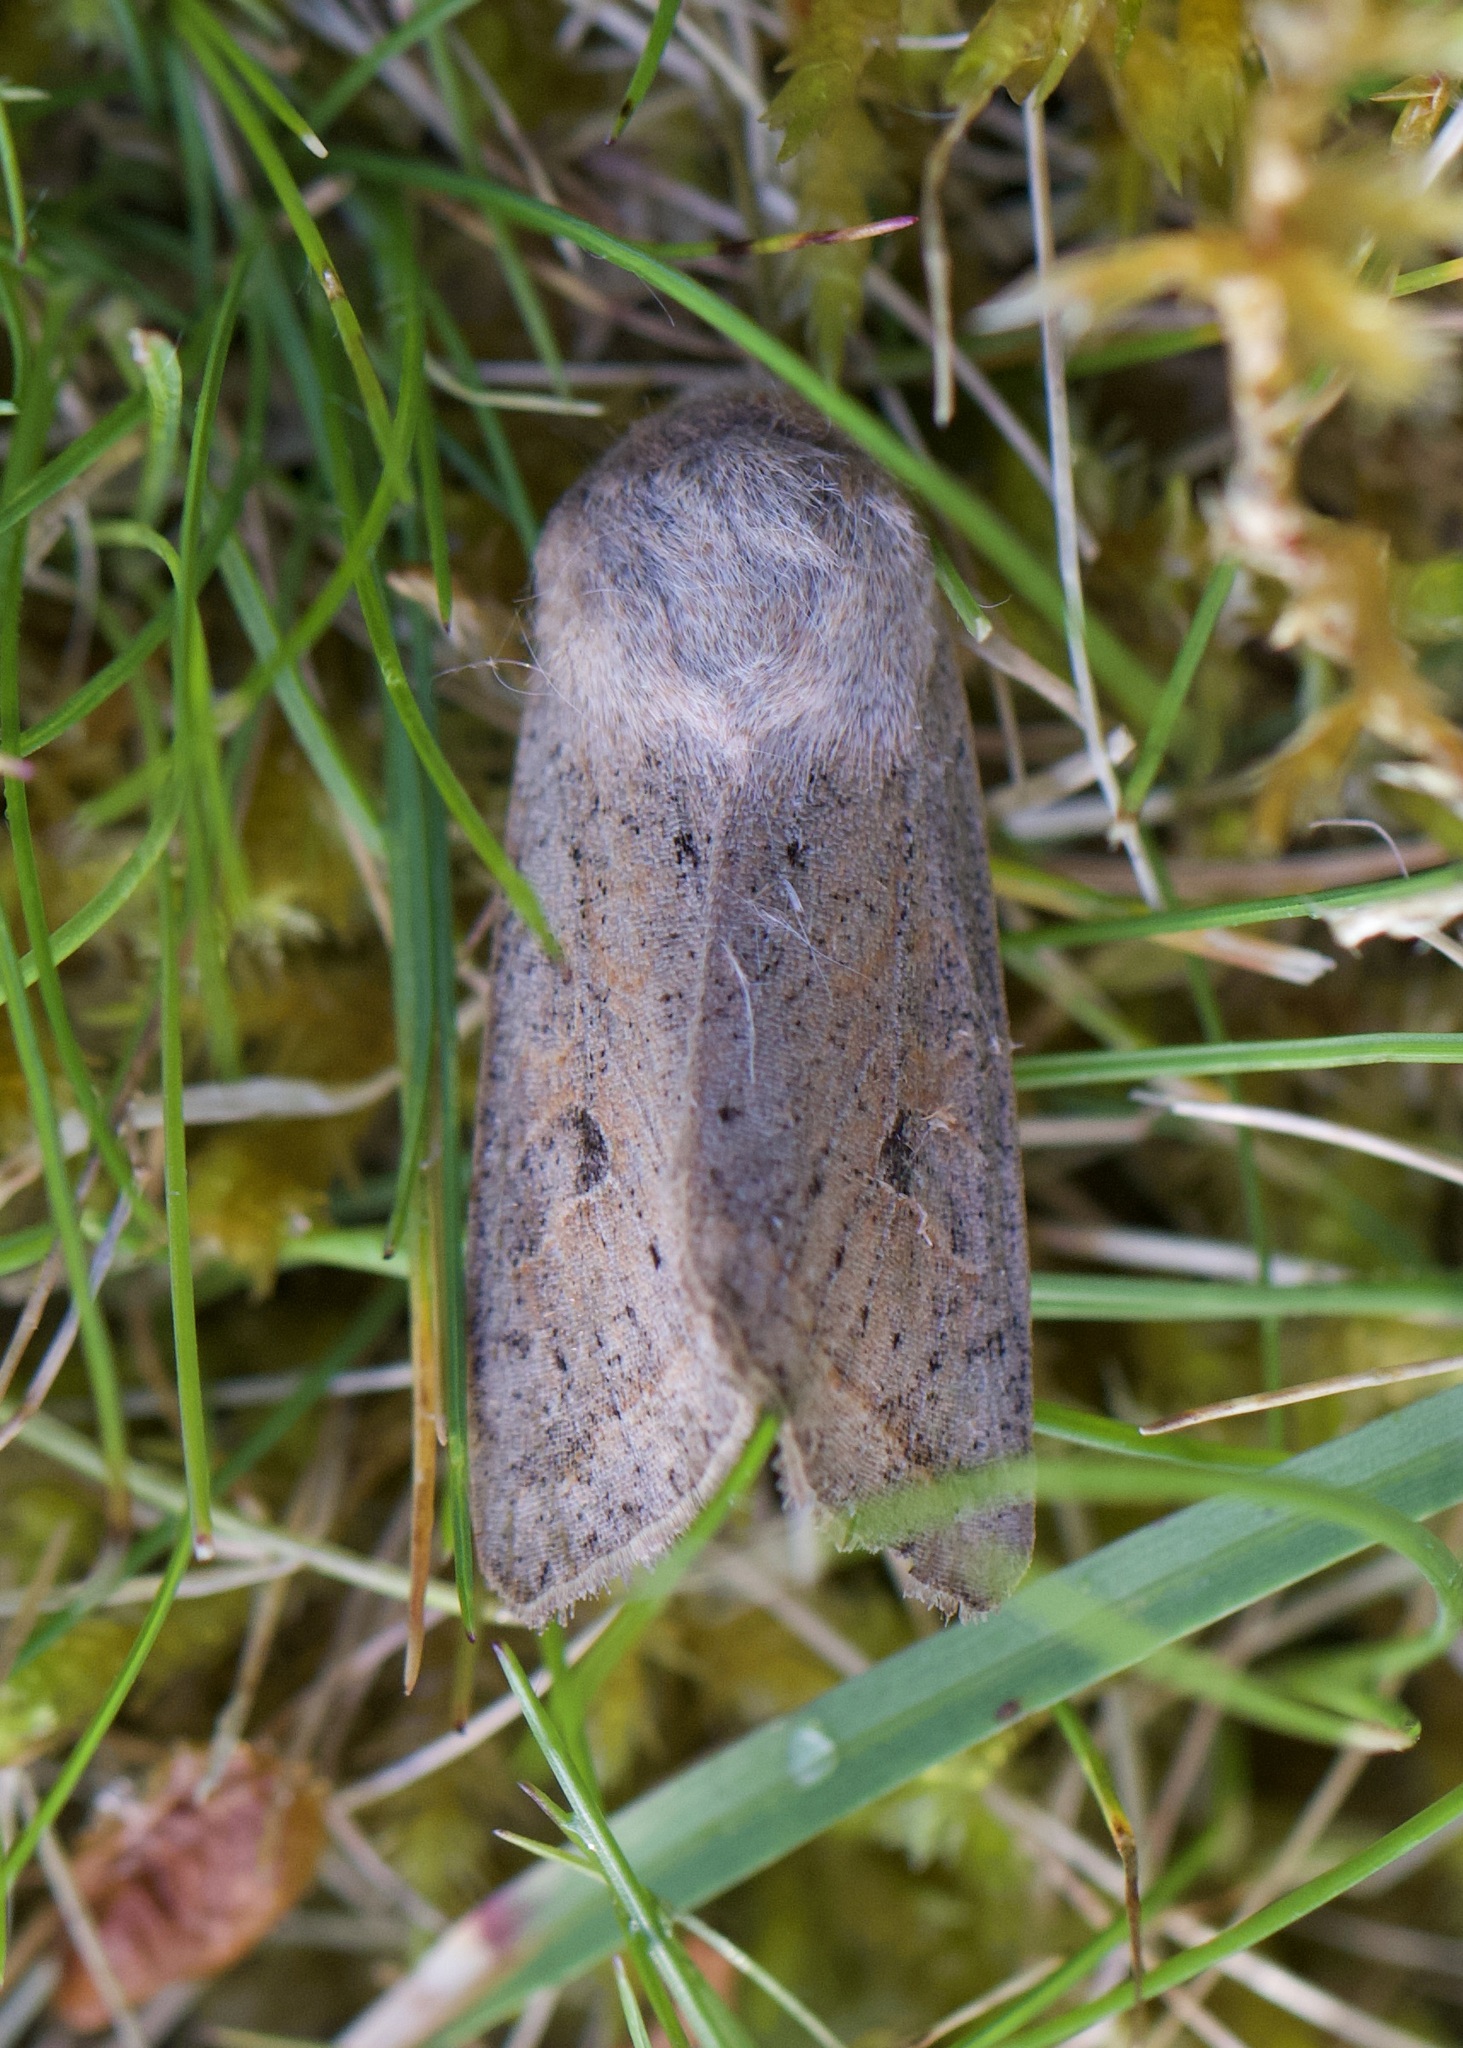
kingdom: Animalia
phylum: Arthropoda
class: Insecta
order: Lepidoptera
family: Noctuidae
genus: Orthosia
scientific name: Orthosia gracilis
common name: Powdered quaker
